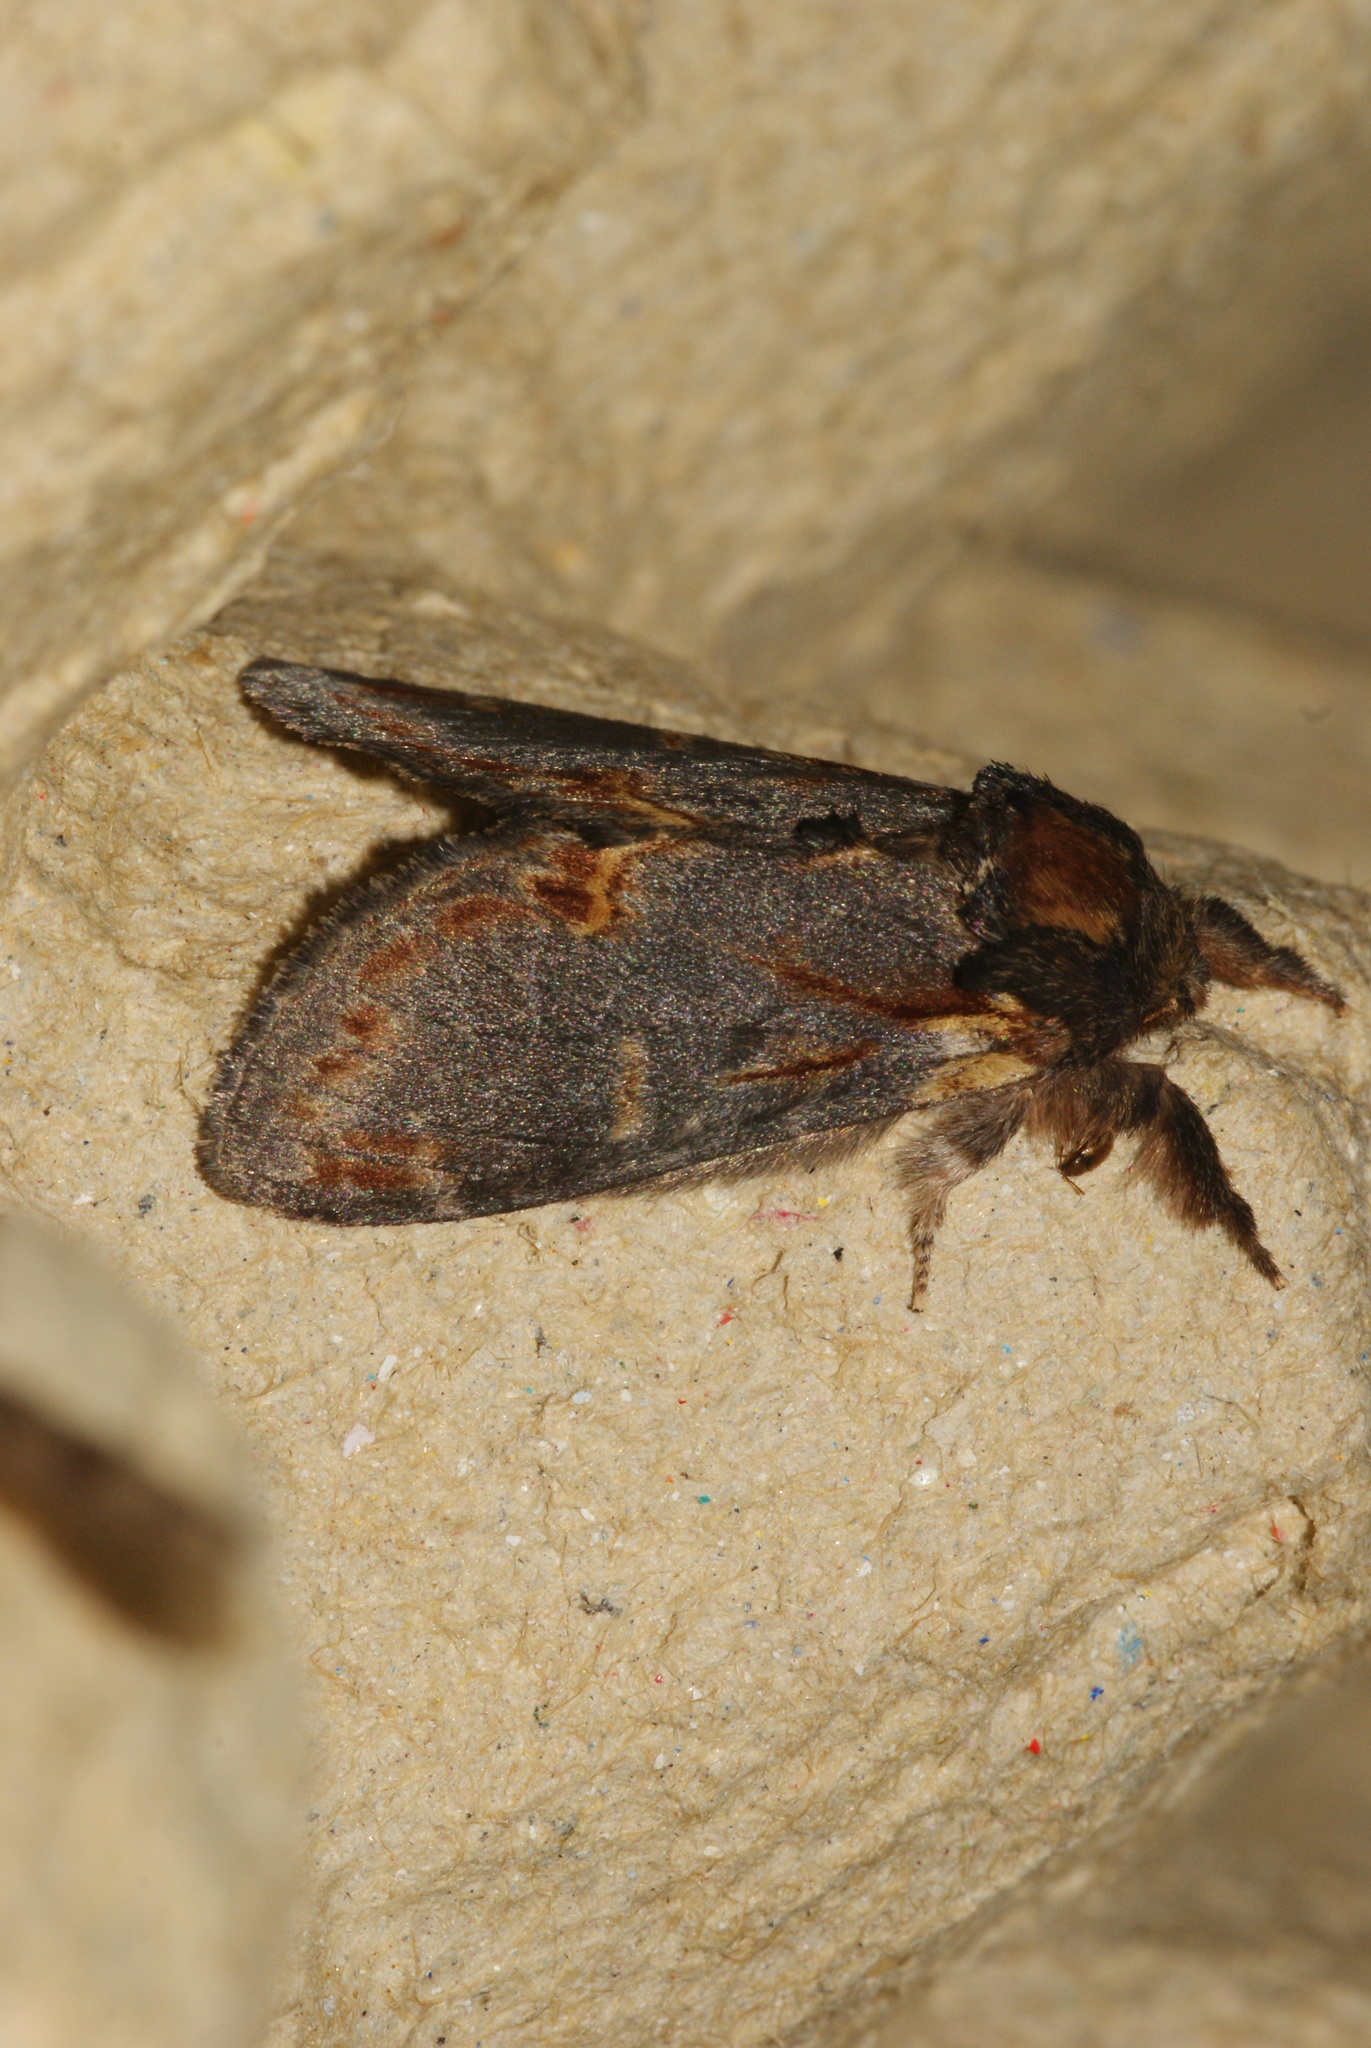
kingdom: Animalia
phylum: Arthropoda
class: Insecta
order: Lepidoptera
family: Notodontidae
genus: Notodonta
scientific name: Notodonta dromedarius
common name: Iron prominent
